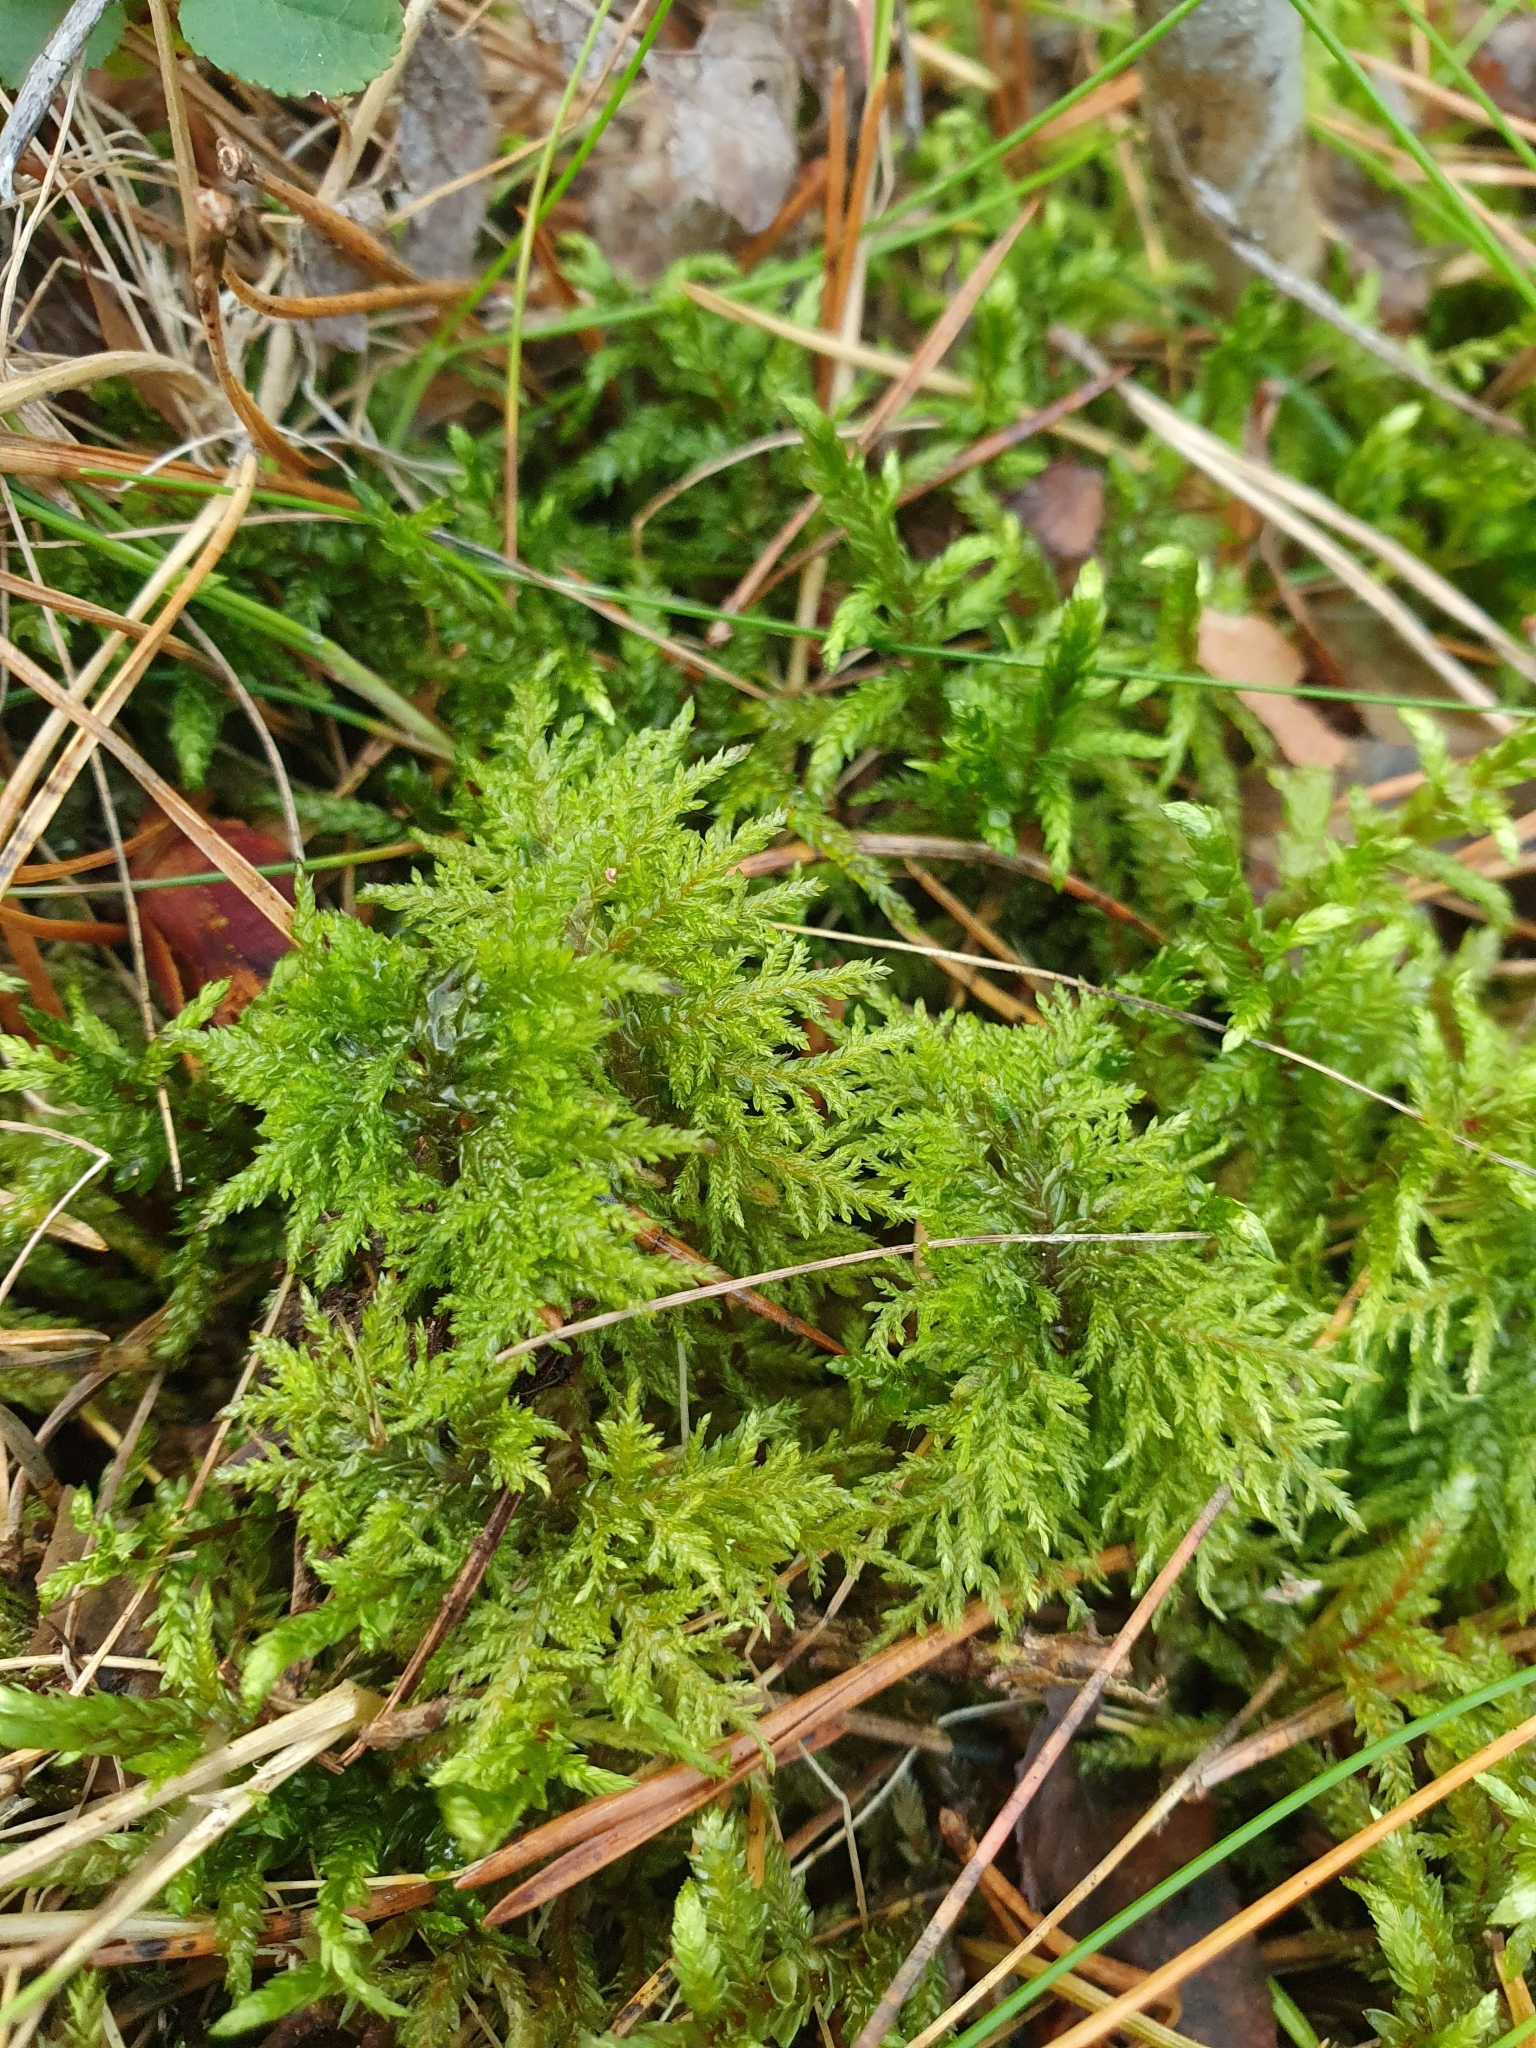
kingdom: Plantae
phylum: Bryophyta
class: Bryopsida
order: Hypnales
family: Hylocomiaceae
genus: Hylocomium
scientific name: Hylocomium splendens
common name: Stairstep moss
